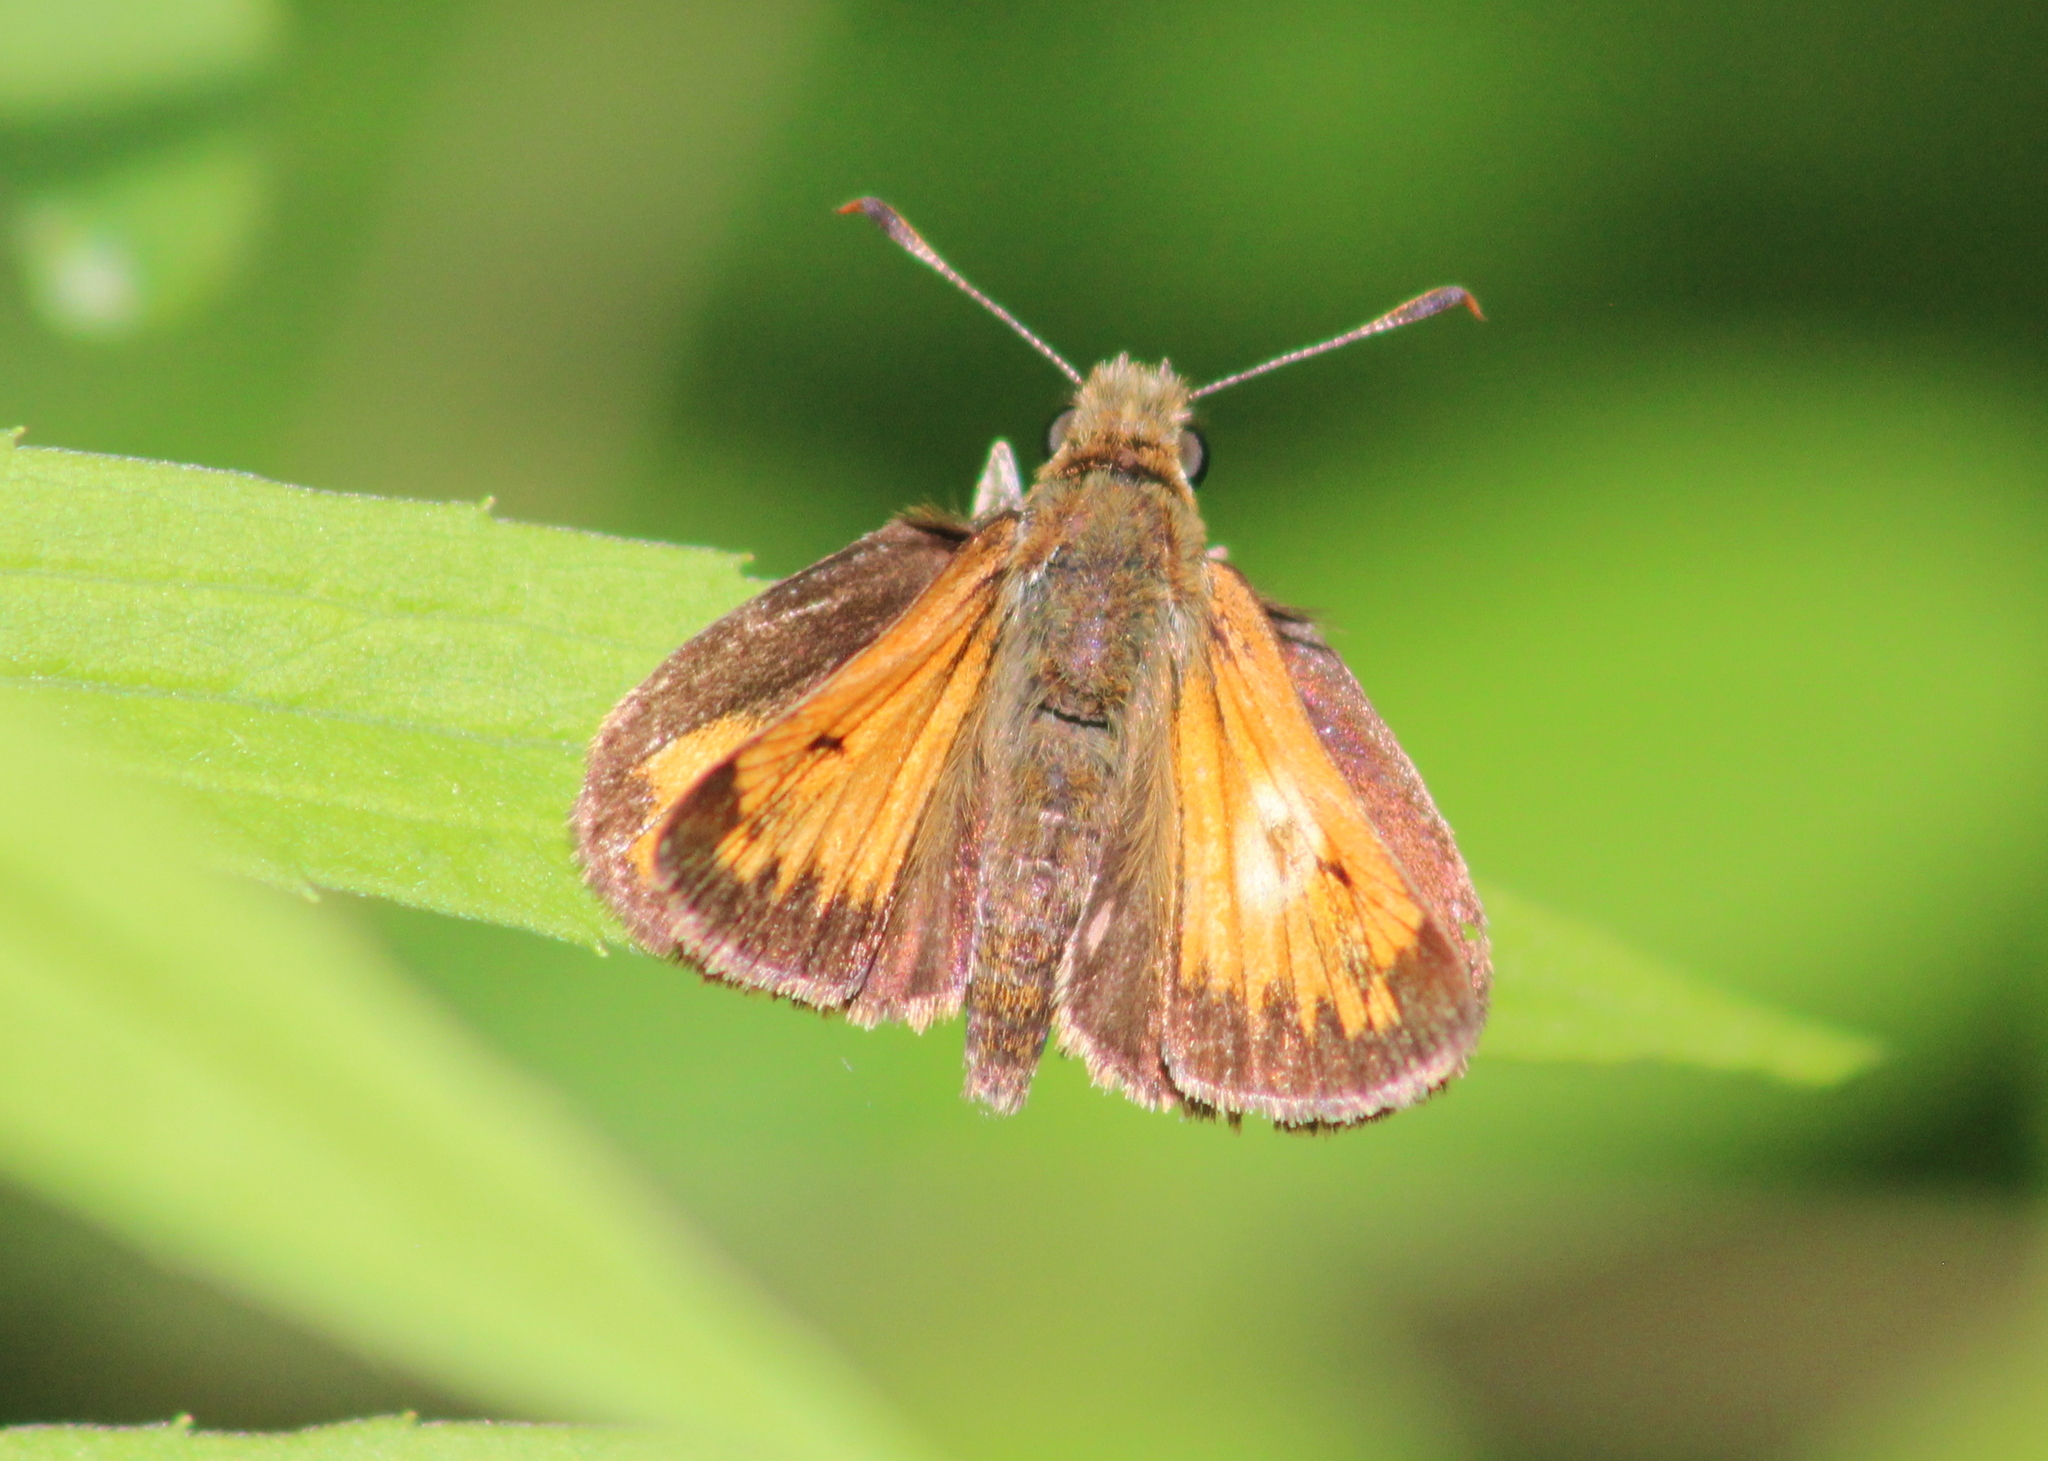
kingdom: Animalia
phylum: Arthropoda
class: Insecta
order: Lepidoptera
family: Hesperiidae
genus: Lon
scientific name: Lon hobomok
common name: Hobomok skipper
